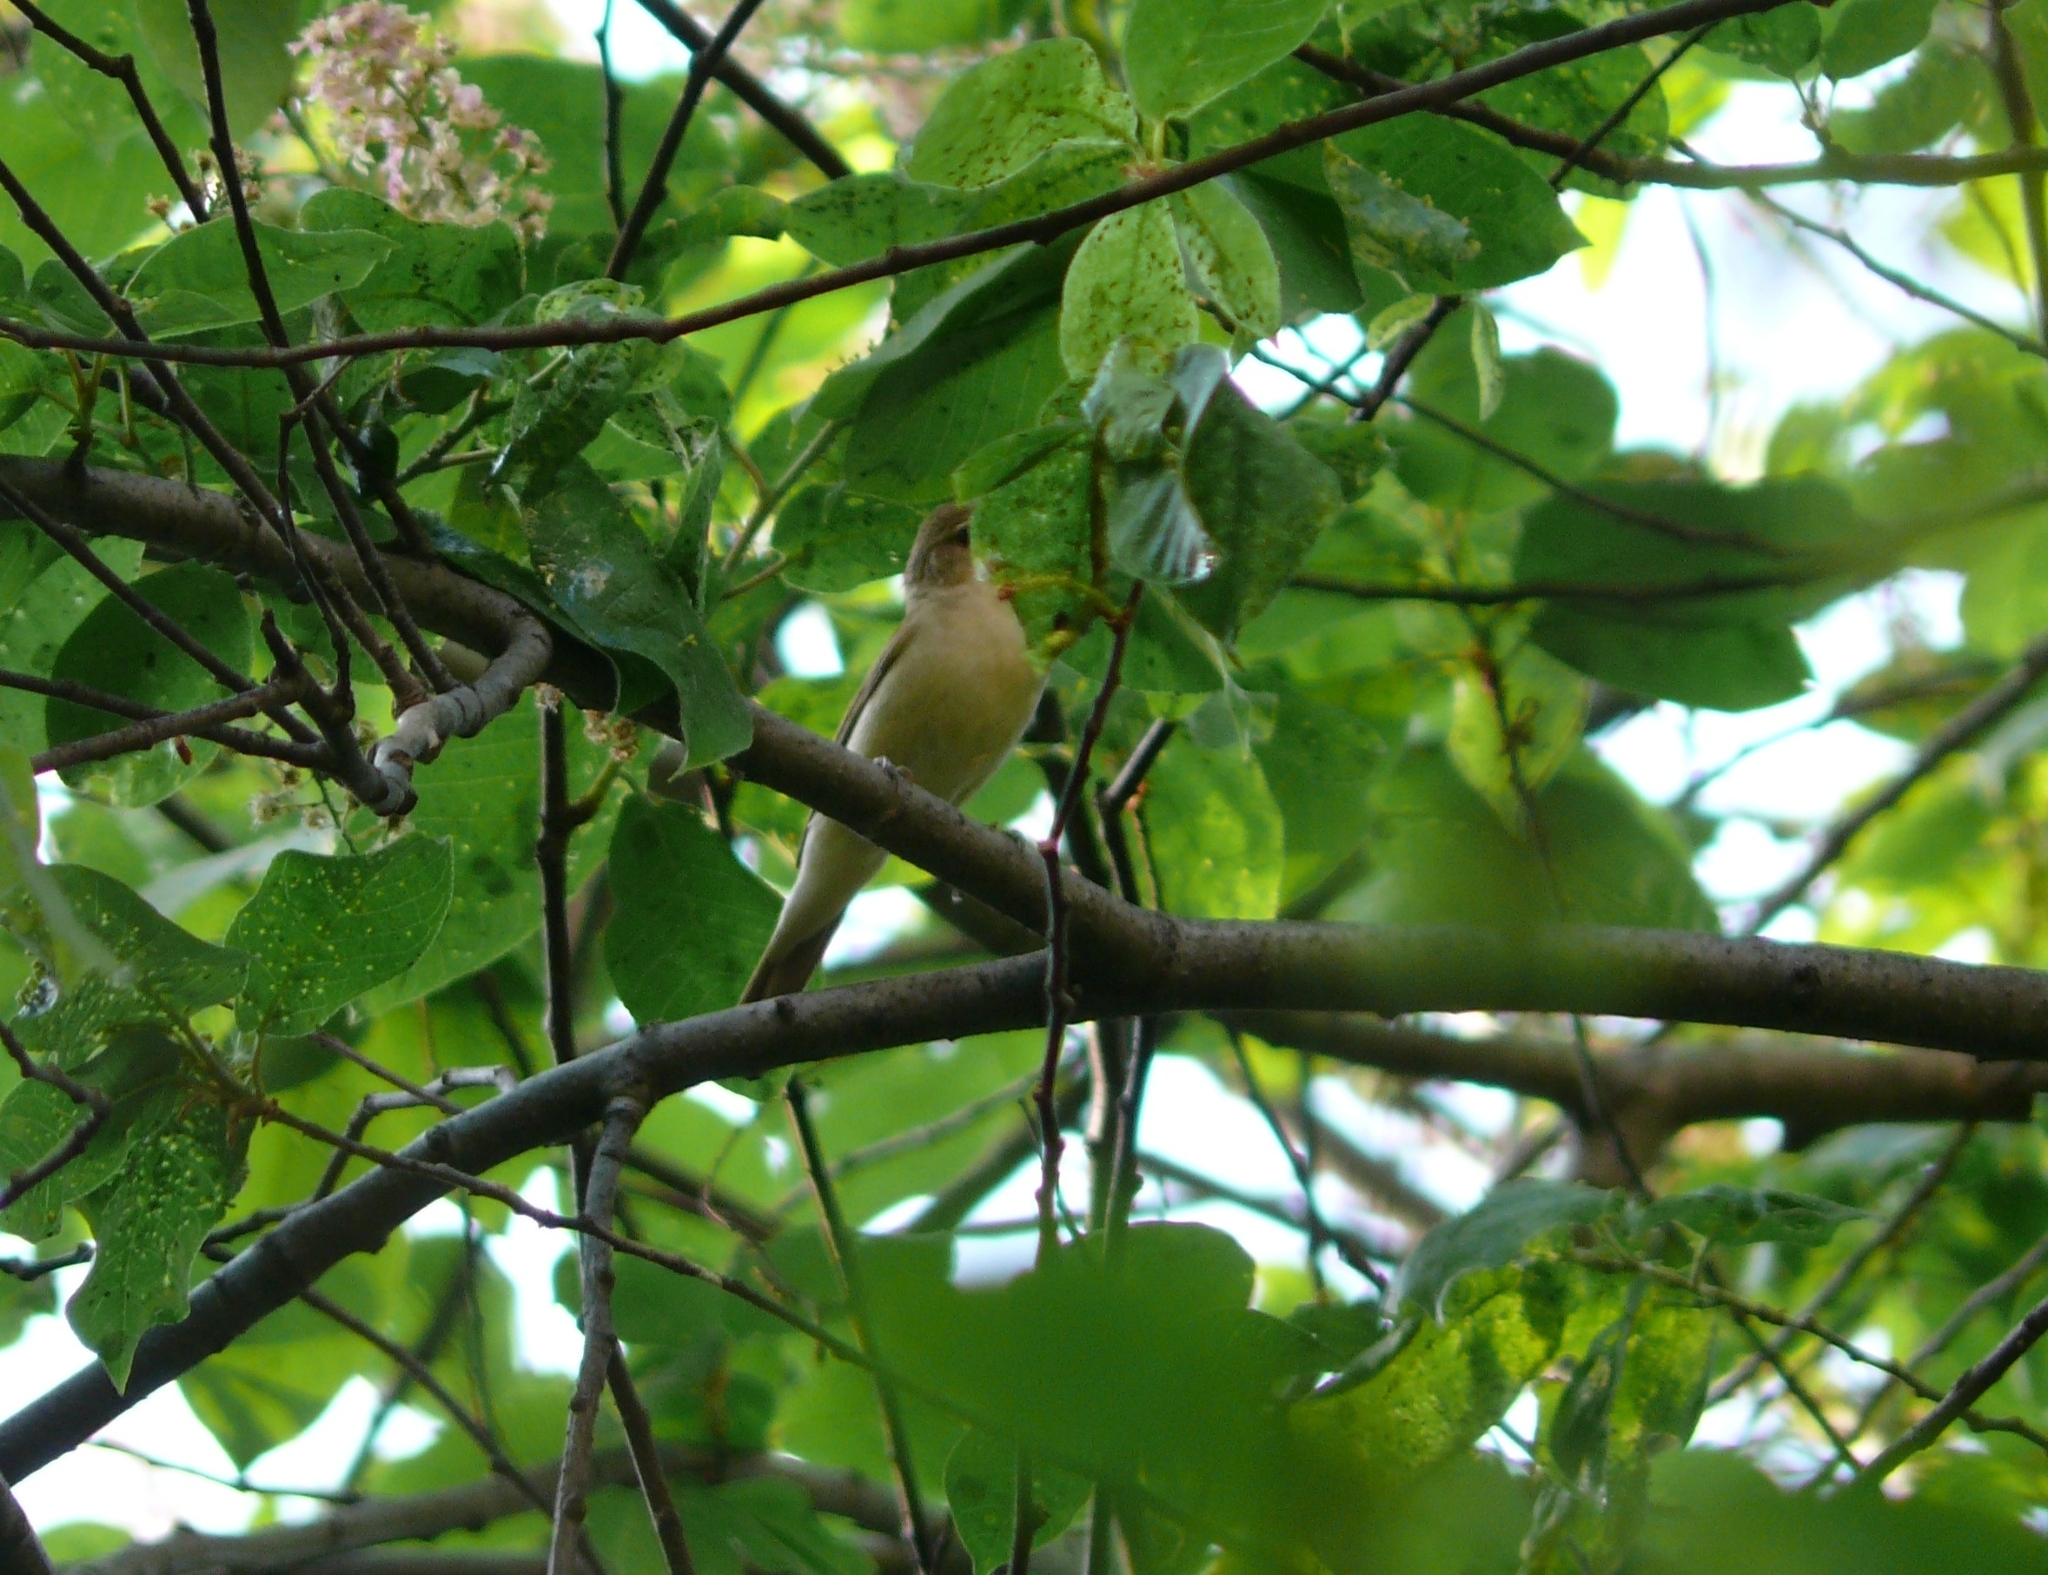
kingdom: Animalia
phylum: Chordata
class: Aves
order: Passeriformes
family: Sylviidae
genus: Sylvia
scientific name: Sylvia borin
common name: Garden warbler
